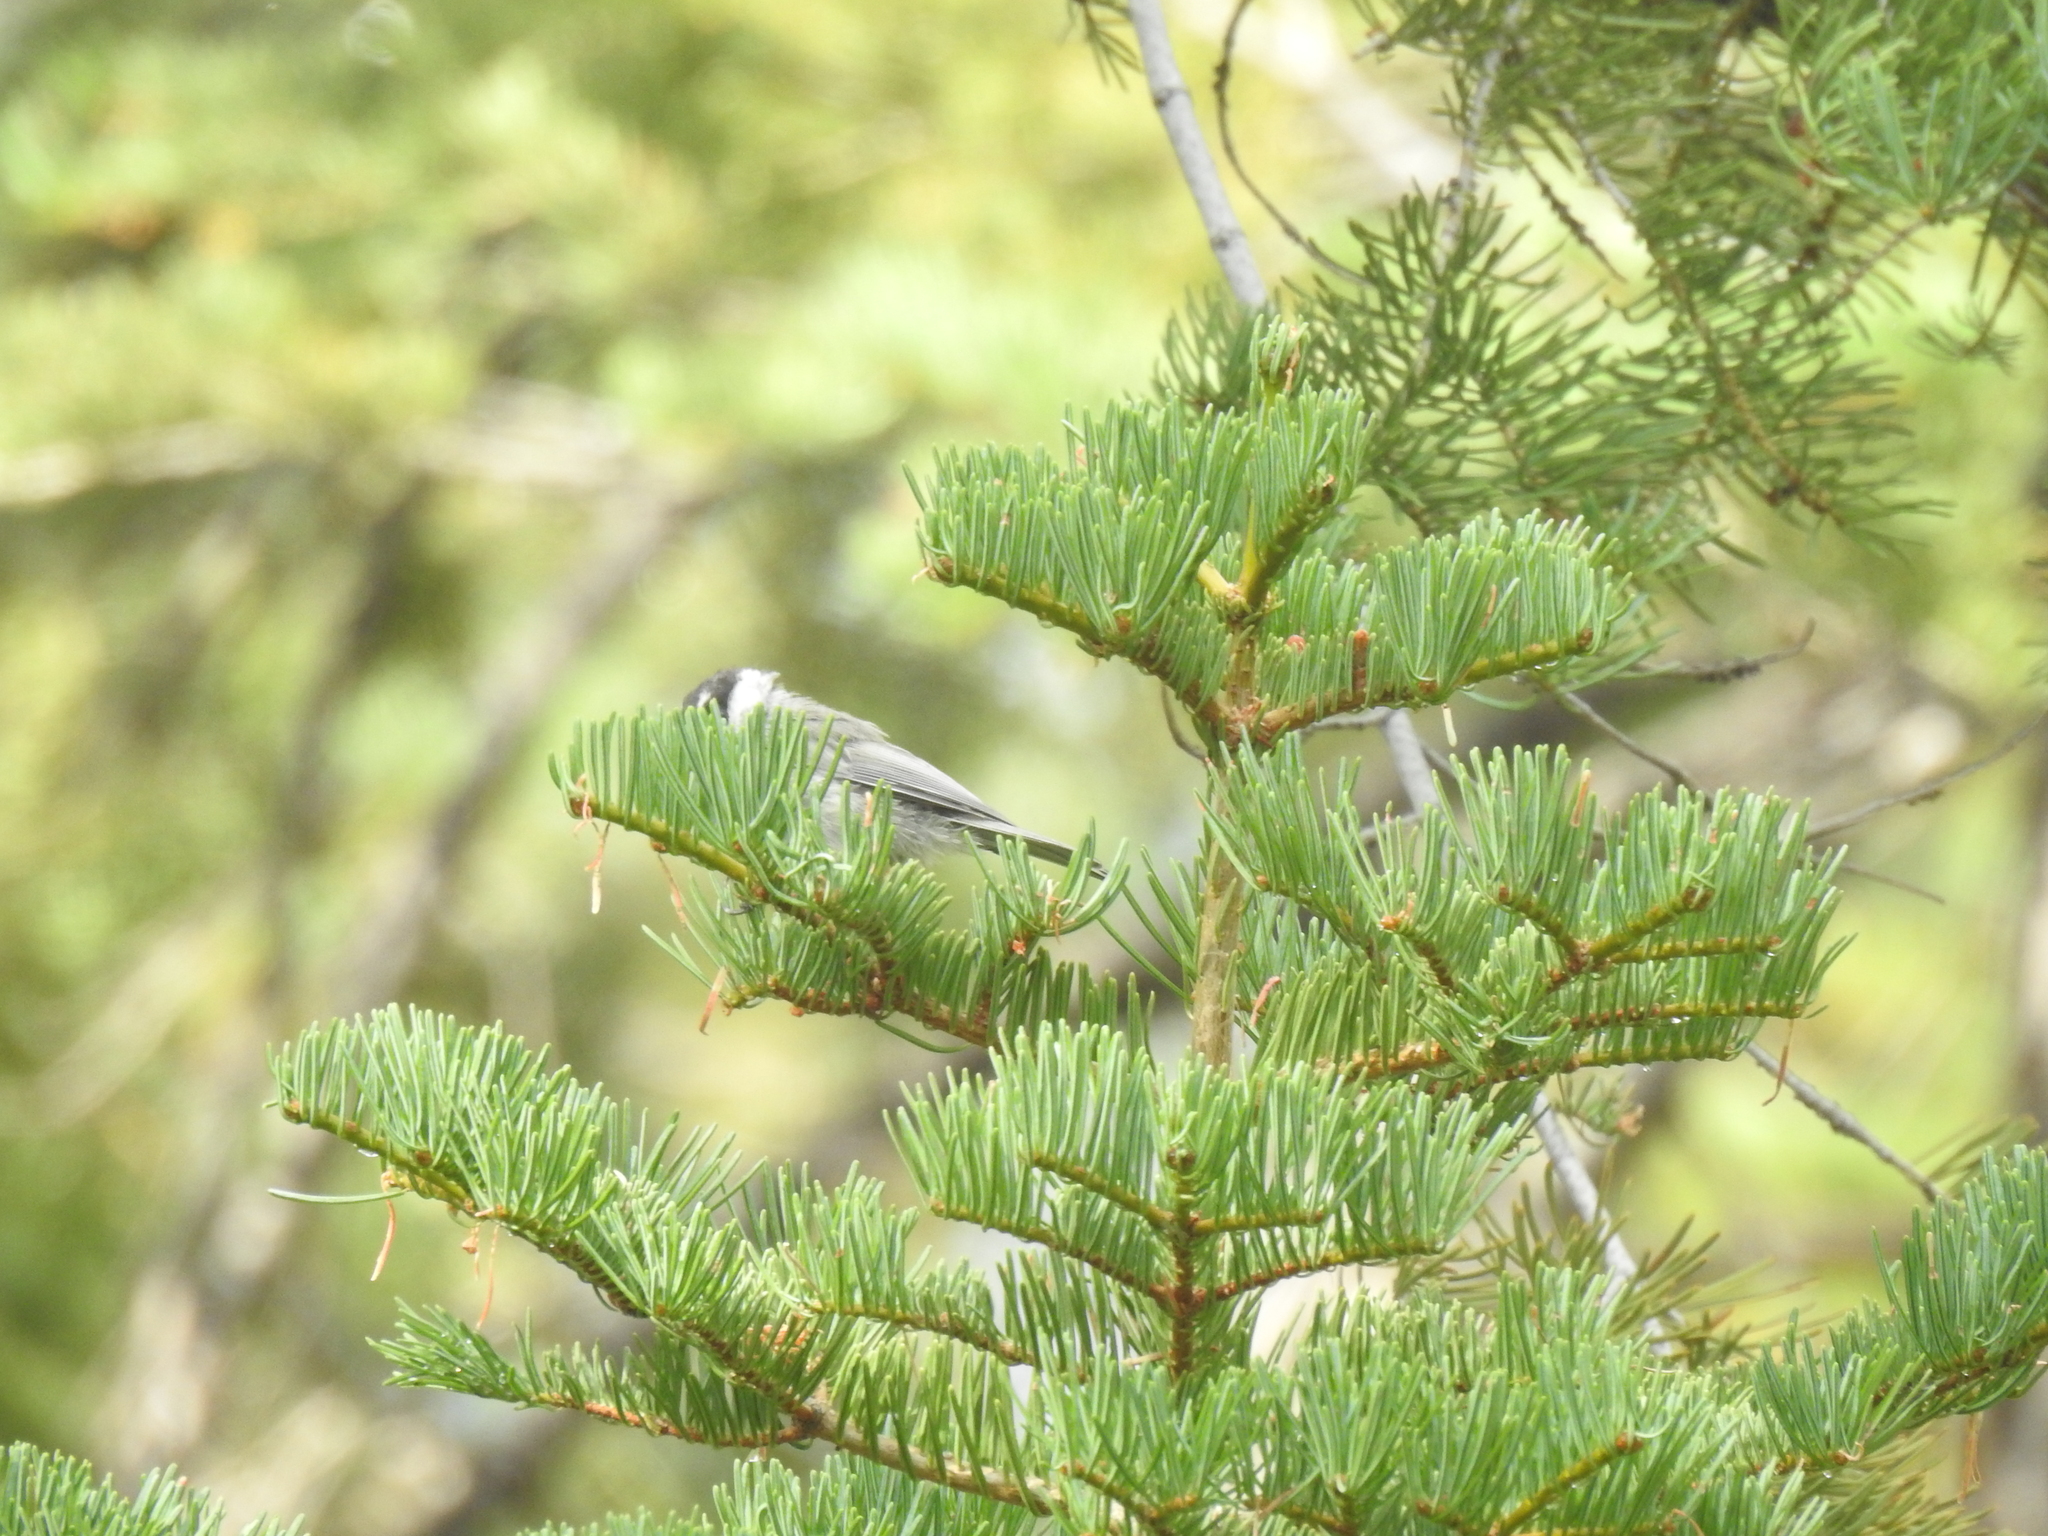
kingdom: Animalia
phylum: Chordata
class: Aves
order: Passeriformes
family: Paridae
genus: Poecile
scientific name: Poecile gambeli
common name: Mountain chickadee
